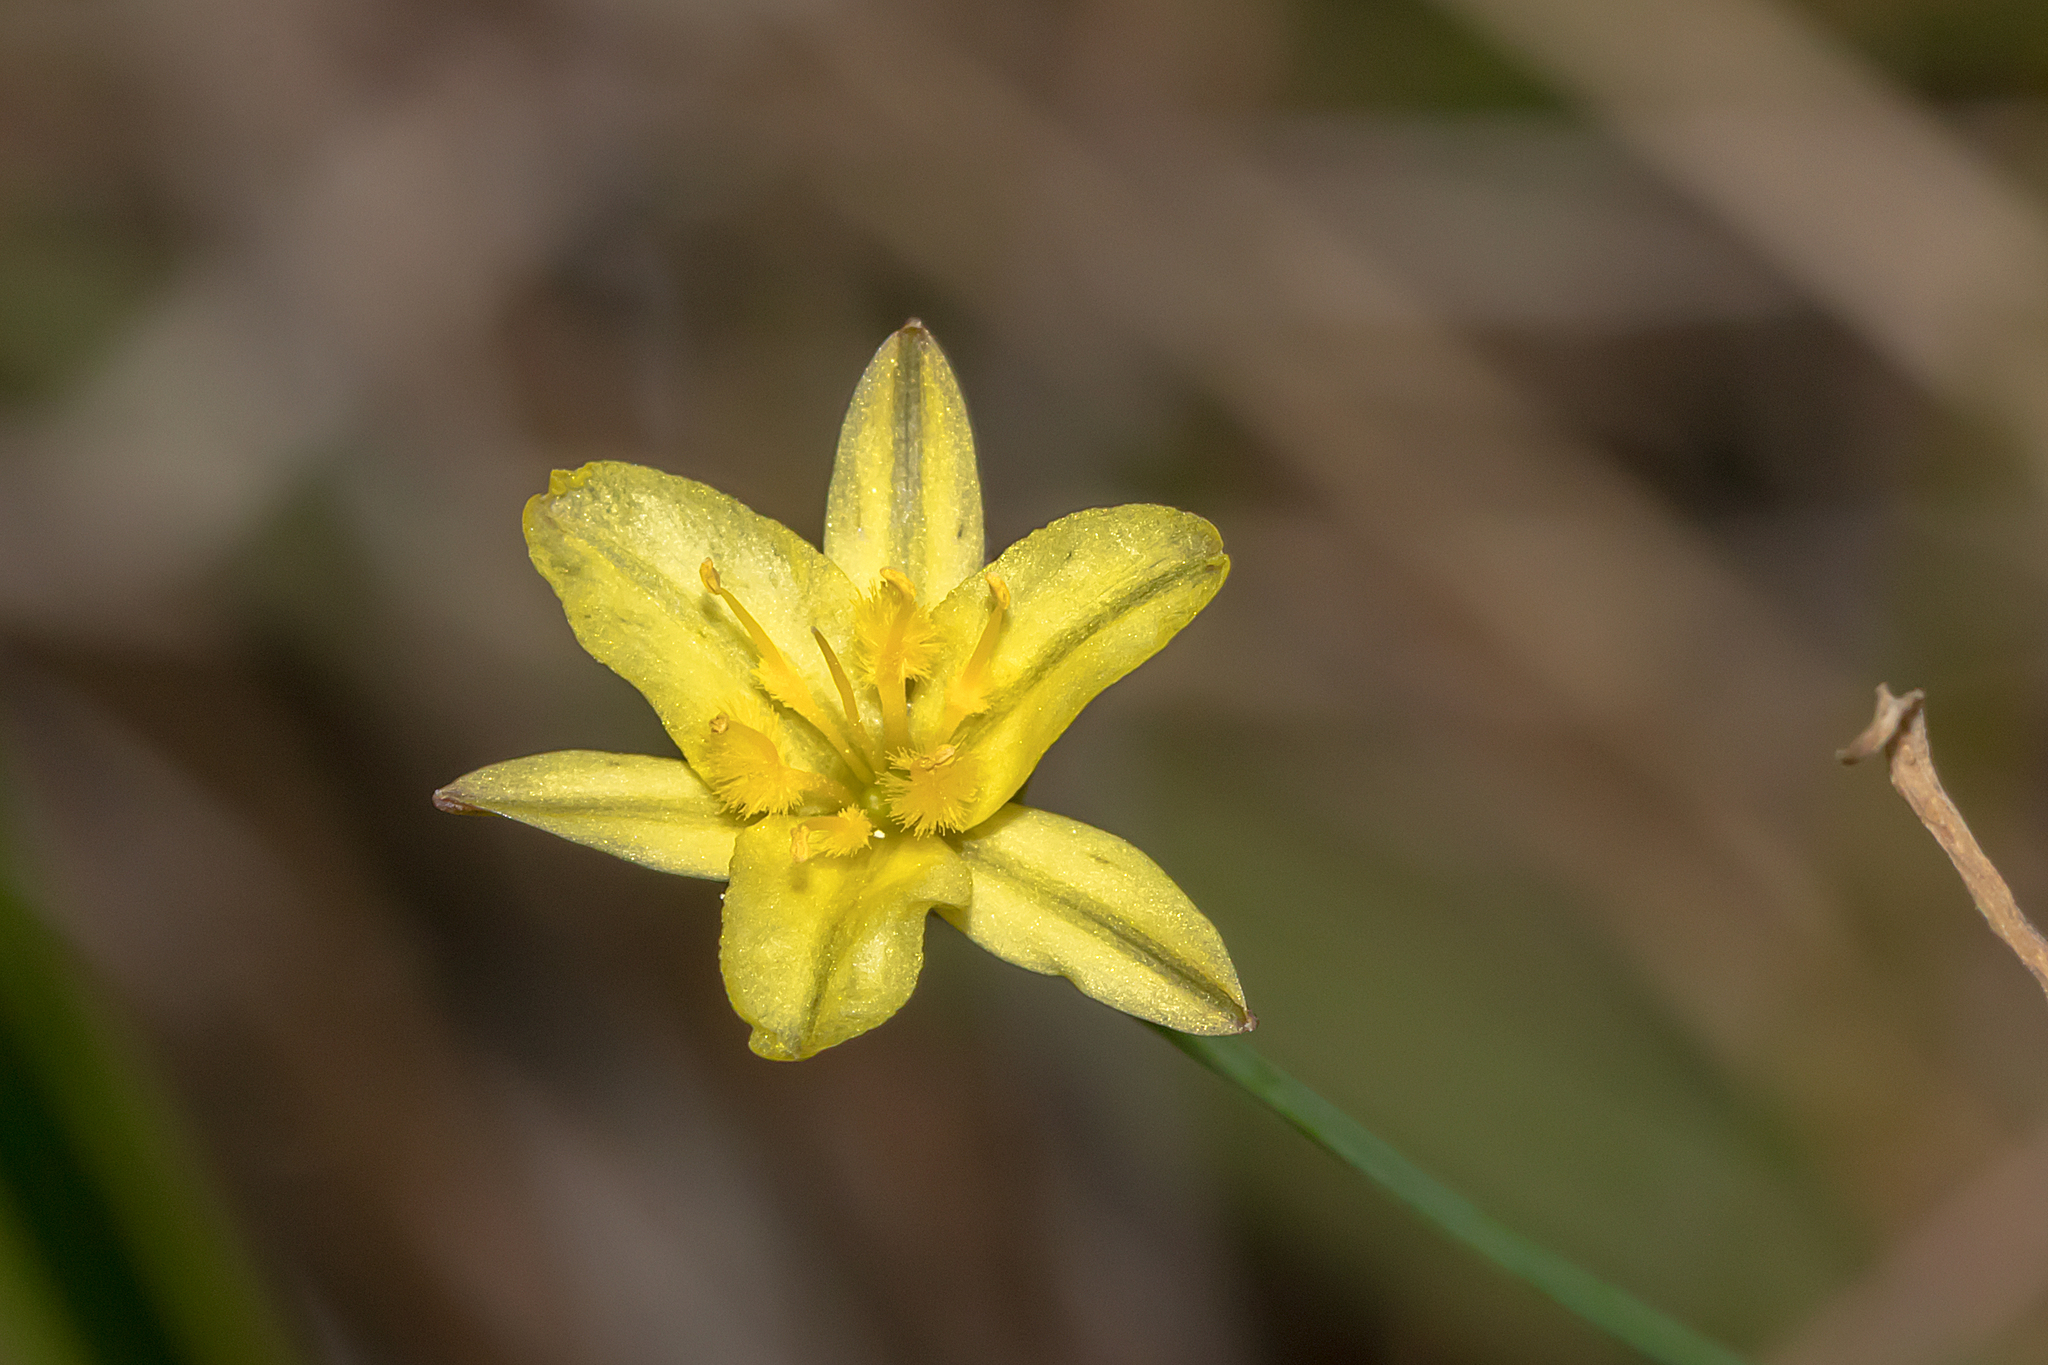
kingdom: Plantae
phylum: Tracheophyta
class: Liliopsida
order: Asparagales
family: Asphodelaceae
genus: Tricoryne
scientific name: Tricoryne elatior
